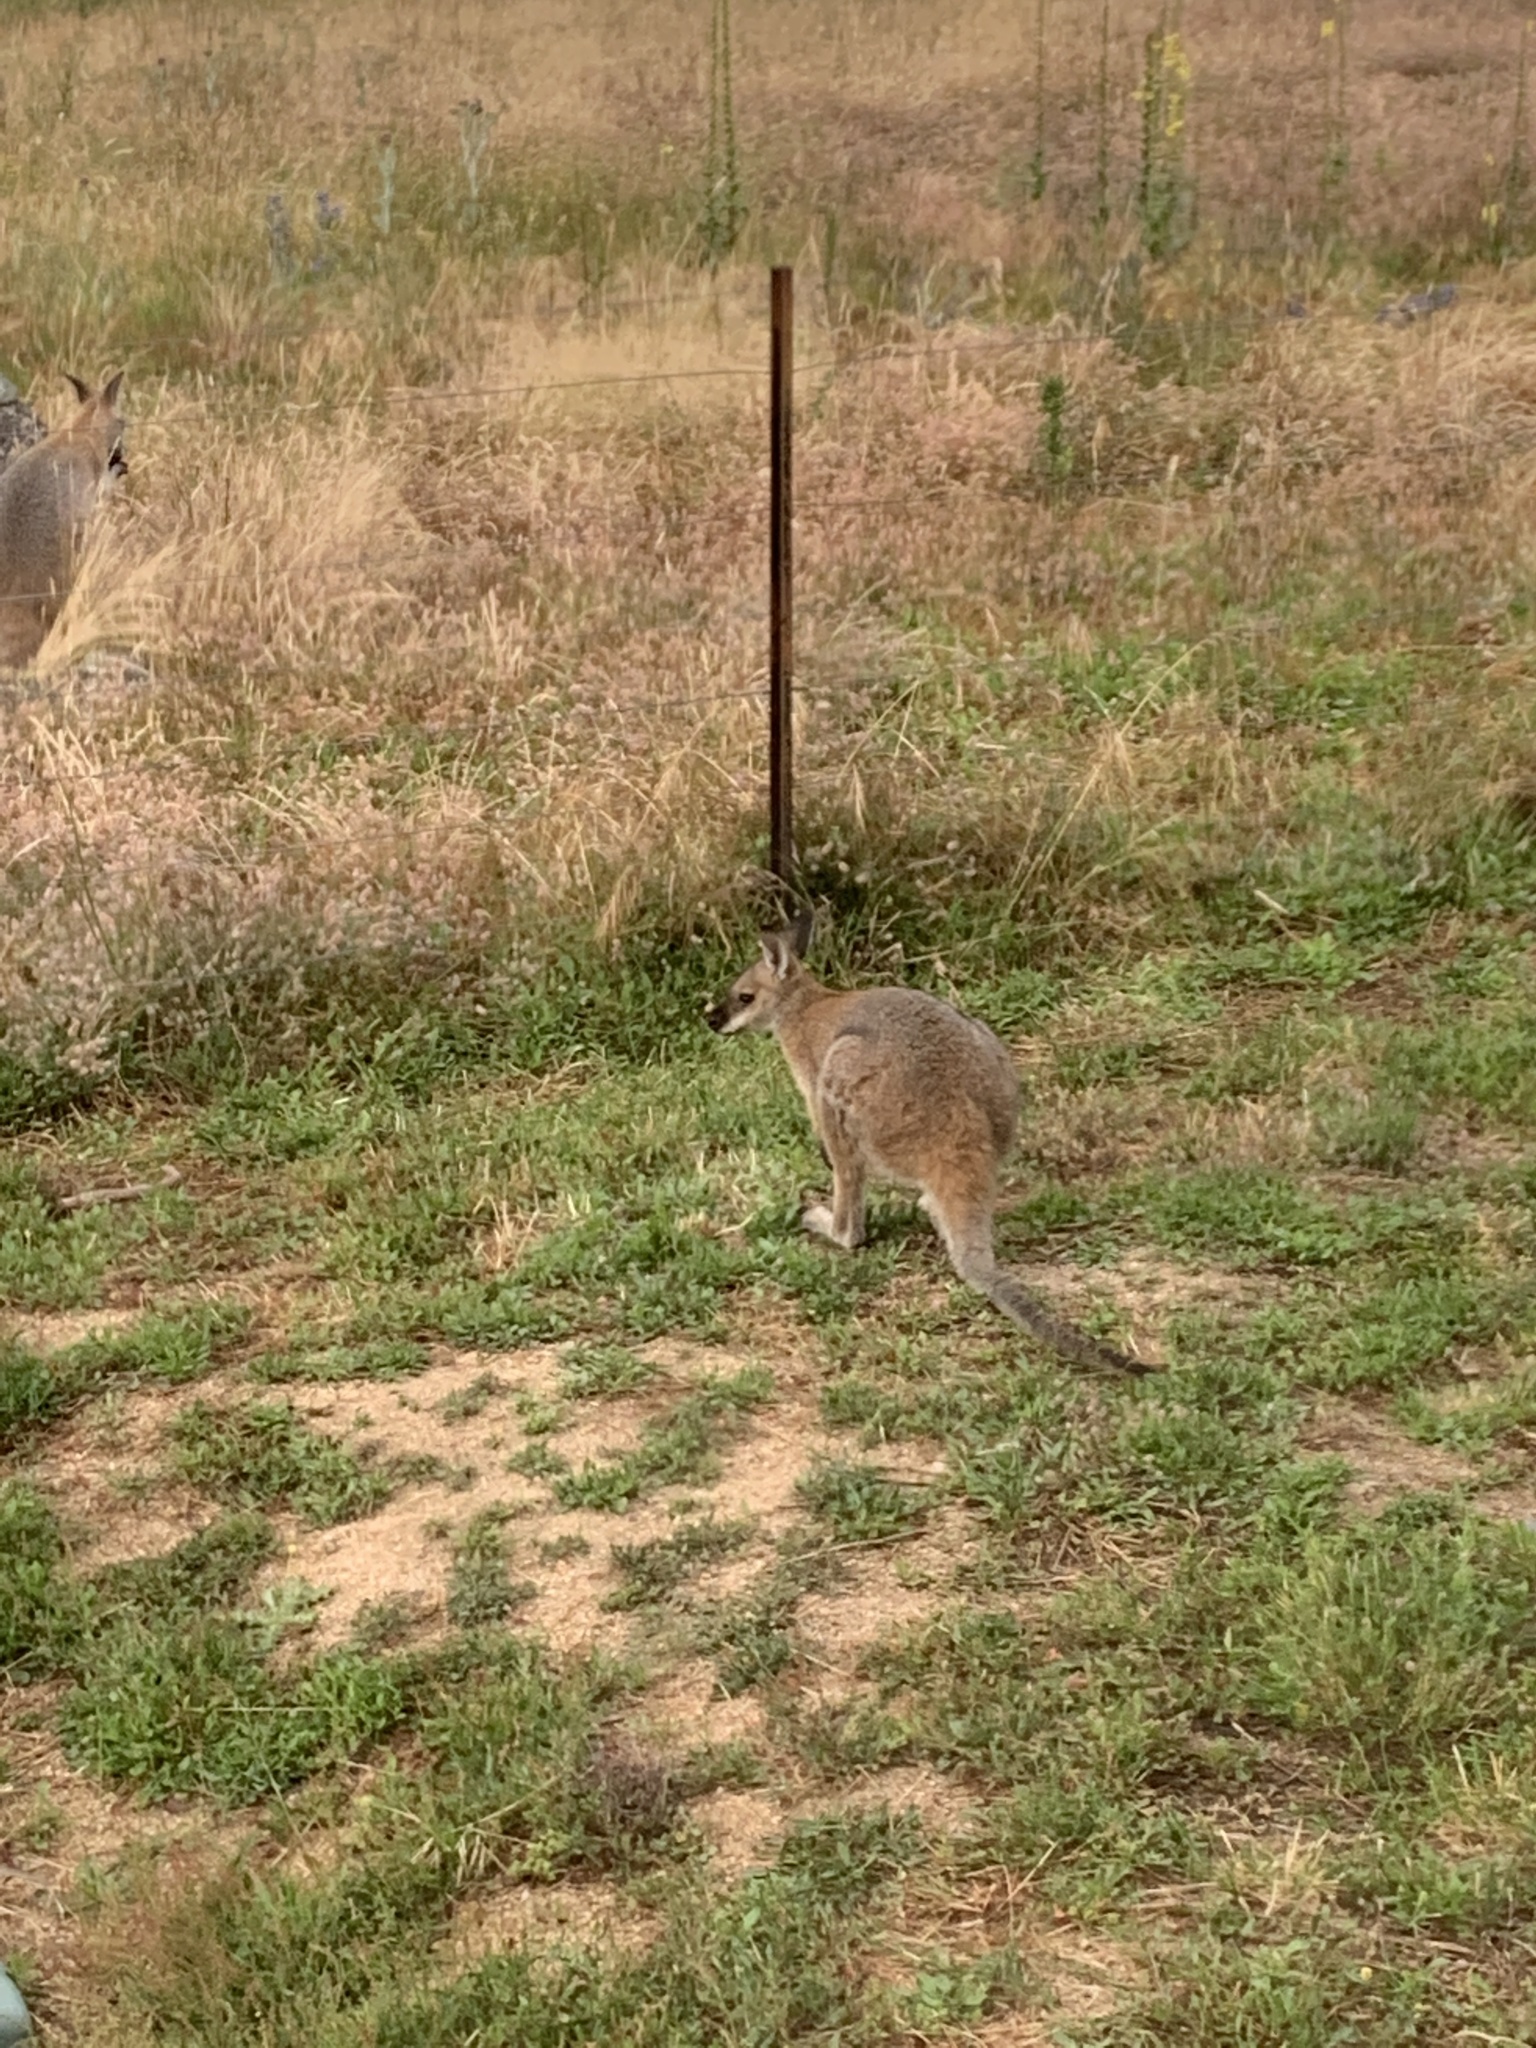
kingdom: Animalia
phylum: Chordata
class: Mammalia
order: Diprotodontia
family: Macropodidae
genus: Notamacropus
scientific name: Notamacropus rufogriseus
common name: Red-necked wallaby
